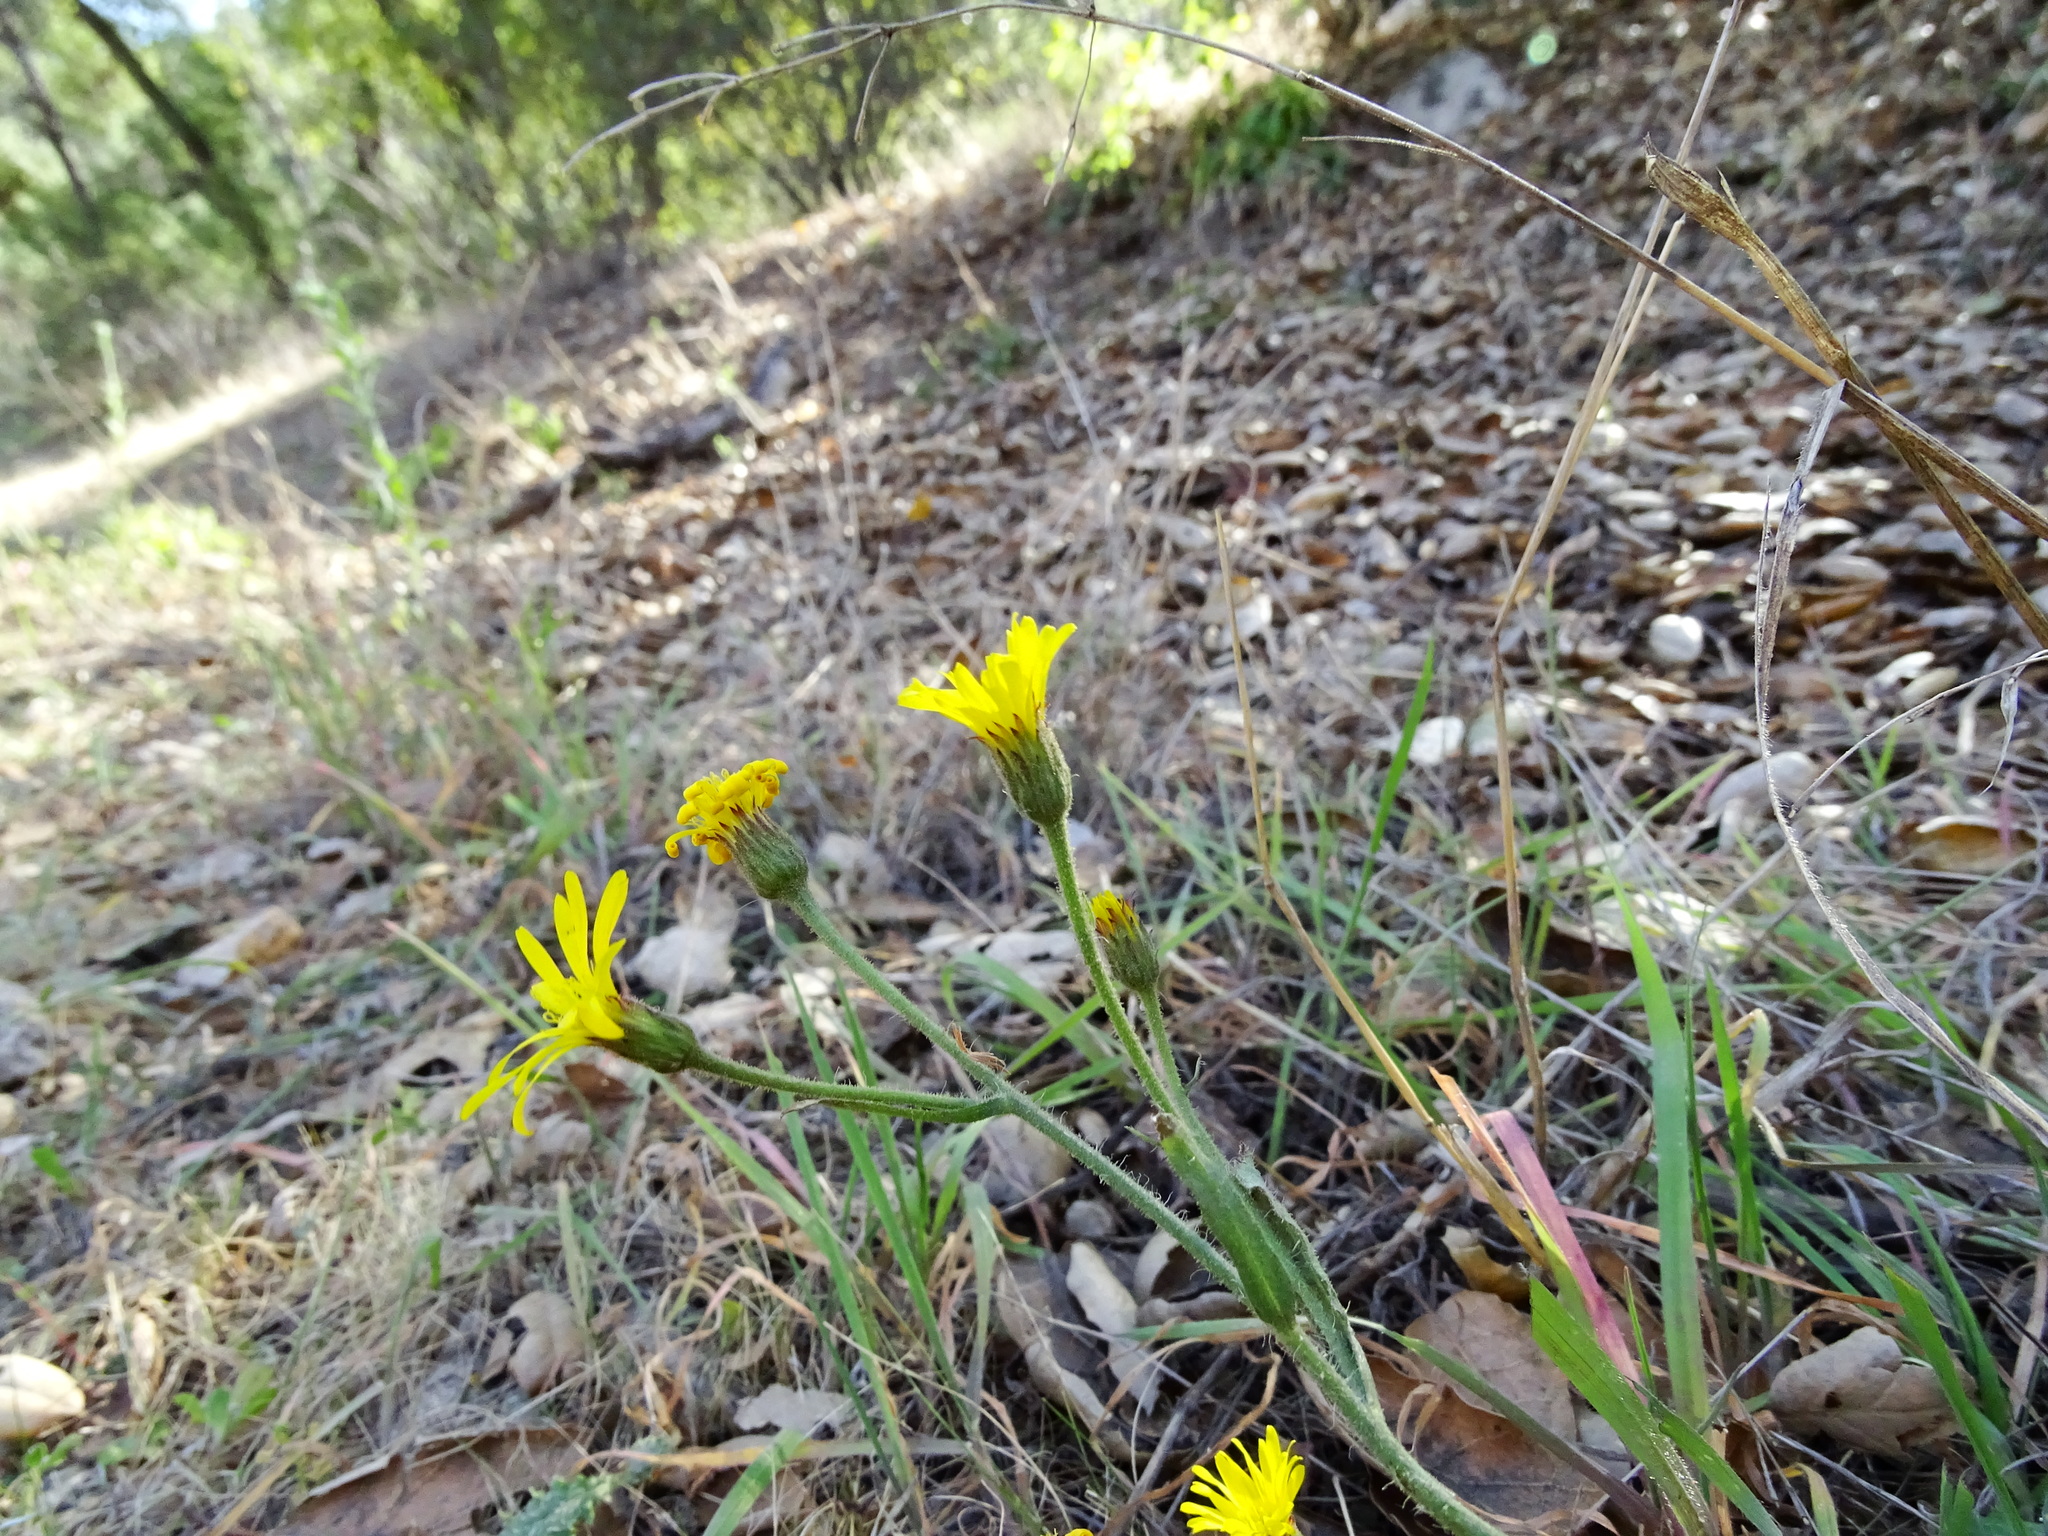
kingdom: Plantae
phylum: Tracheophyta
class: Magnoliopsida
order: Asterales
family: Asteraceae
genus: Heterotheca
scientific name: Heterotheca grandiflora
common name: Telegraphweed
